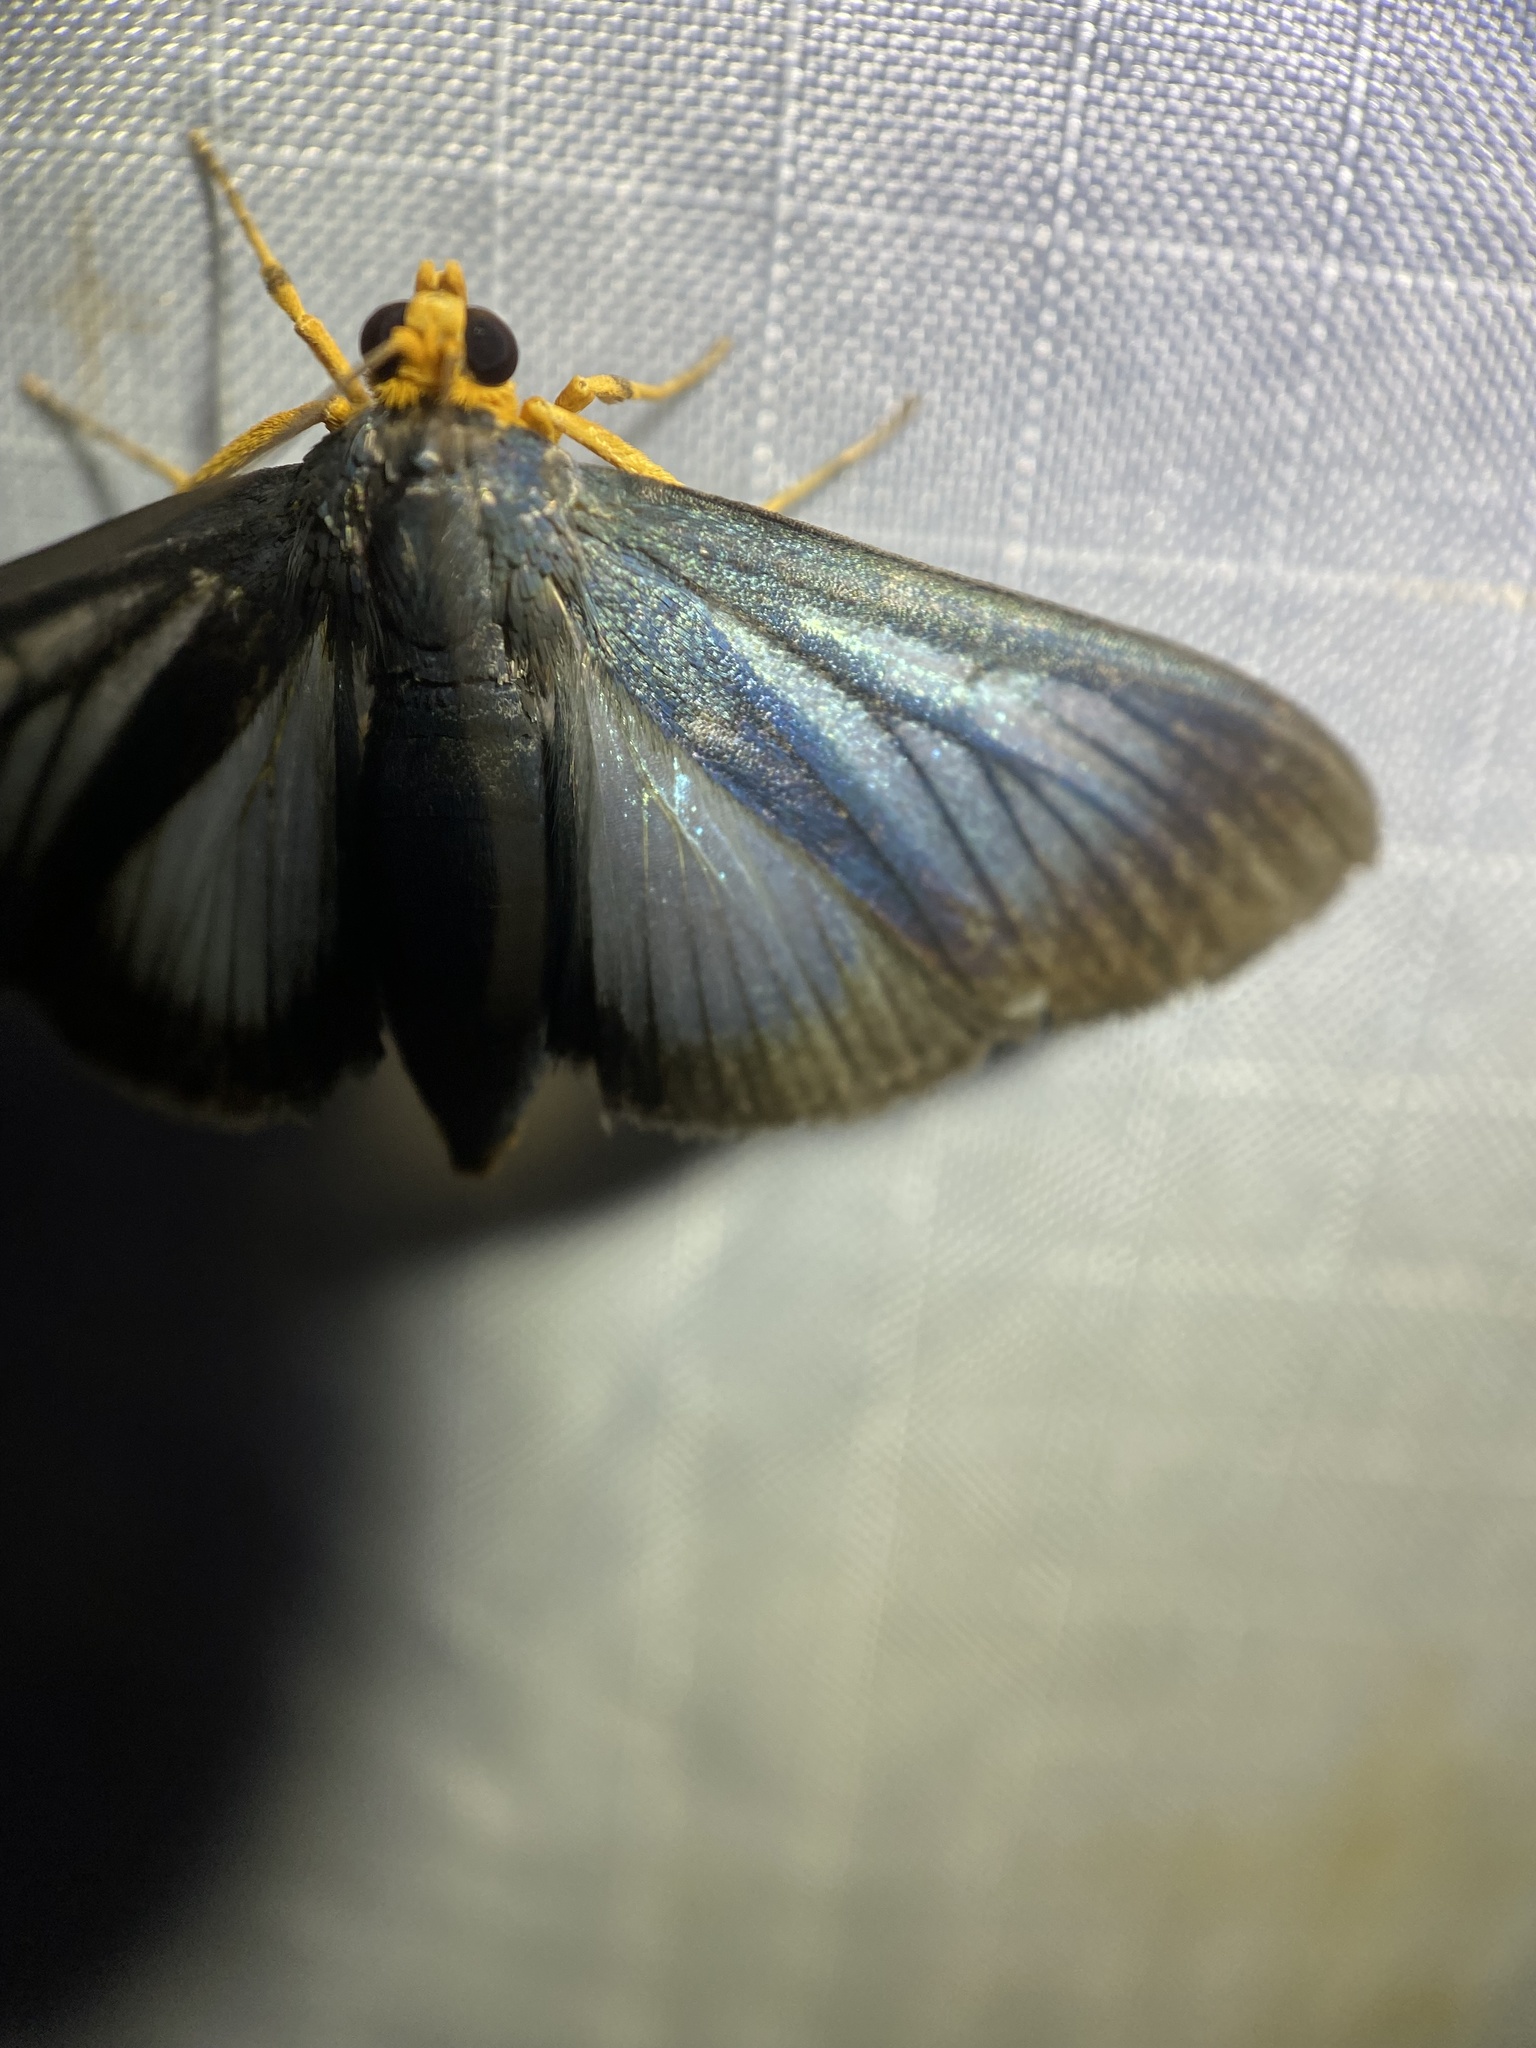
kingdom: Animalia
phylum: Arthropoda
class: Insecta
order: Lepidoptera
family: Crambidae
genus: Omiodes
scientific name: Omiodes croceiceps
